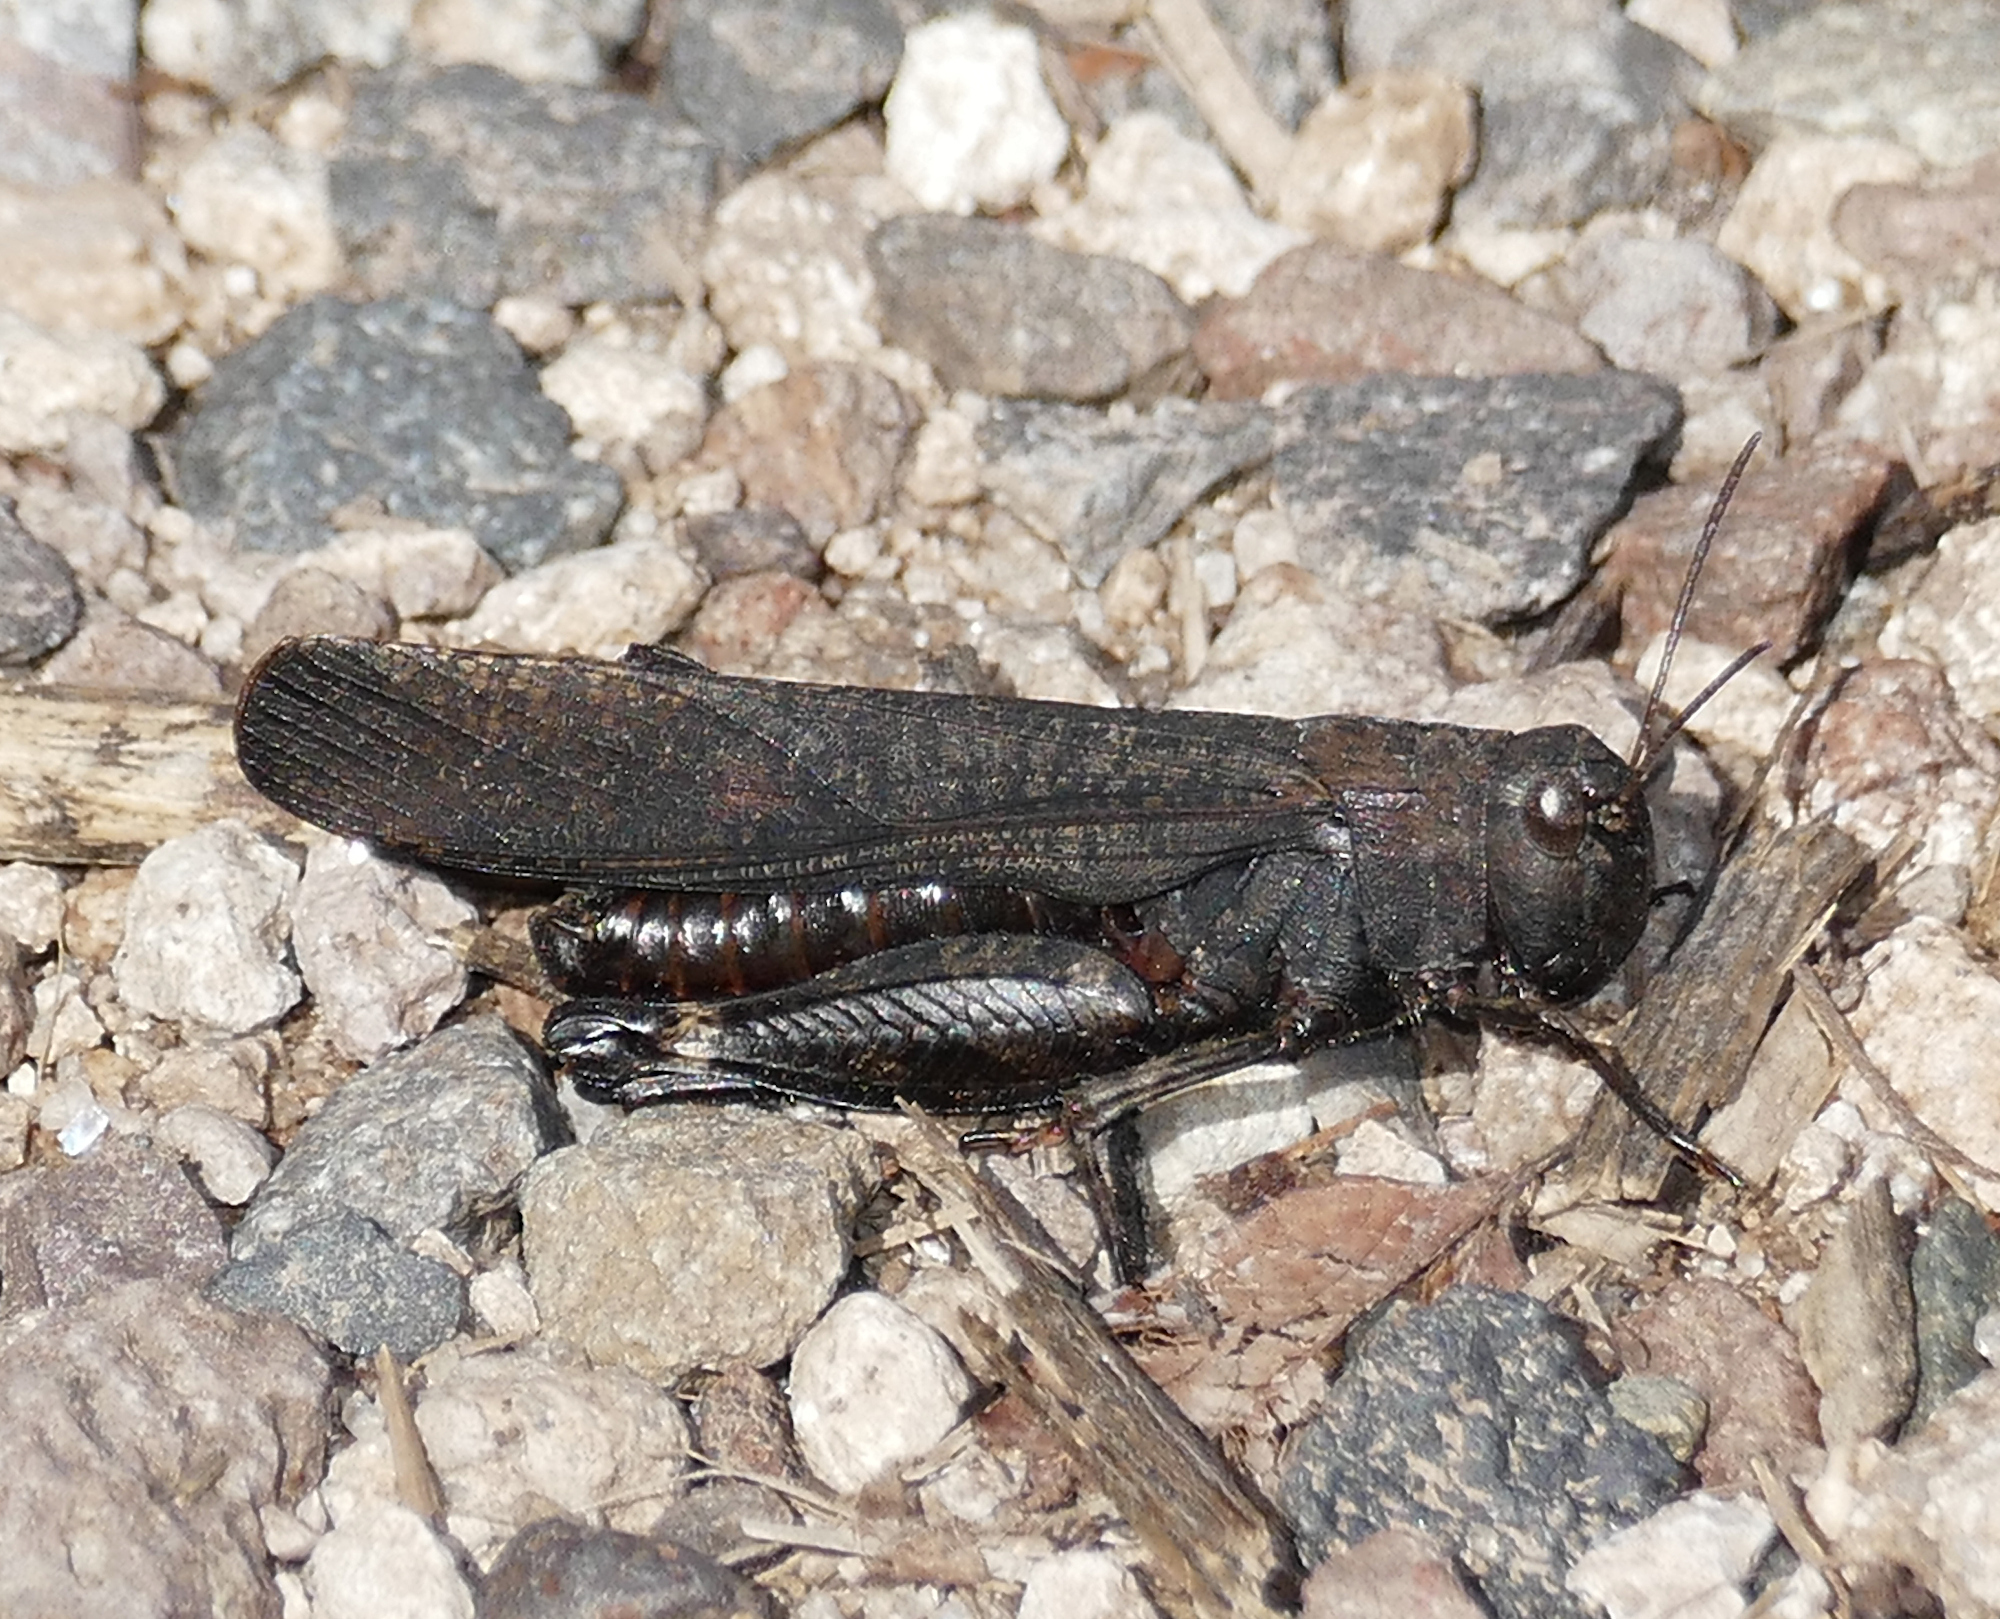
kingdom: Animalia
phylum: Arthropoda
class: Insecta
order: Orthoptera
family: Acrididae
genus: Arphia
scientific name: Arphia pseudo-nietana
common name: Red-winged grasshopper
